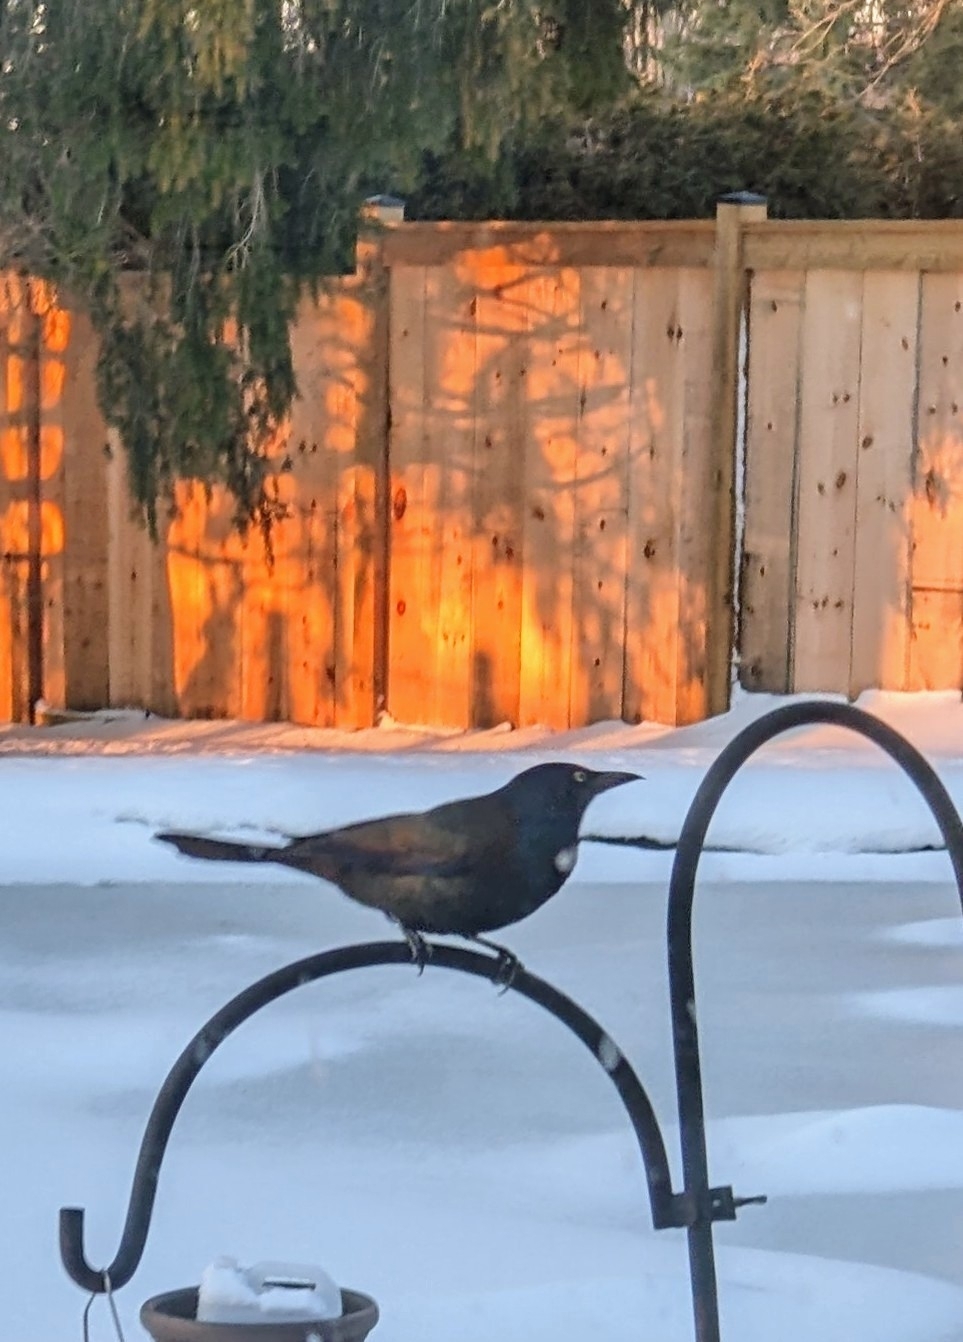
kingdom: Animalia
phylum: Chordata
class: Aves
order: Passeriformes
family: Icteridae
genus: Quiscalus
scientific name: Quiscalus quiscula
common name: Common grackle
